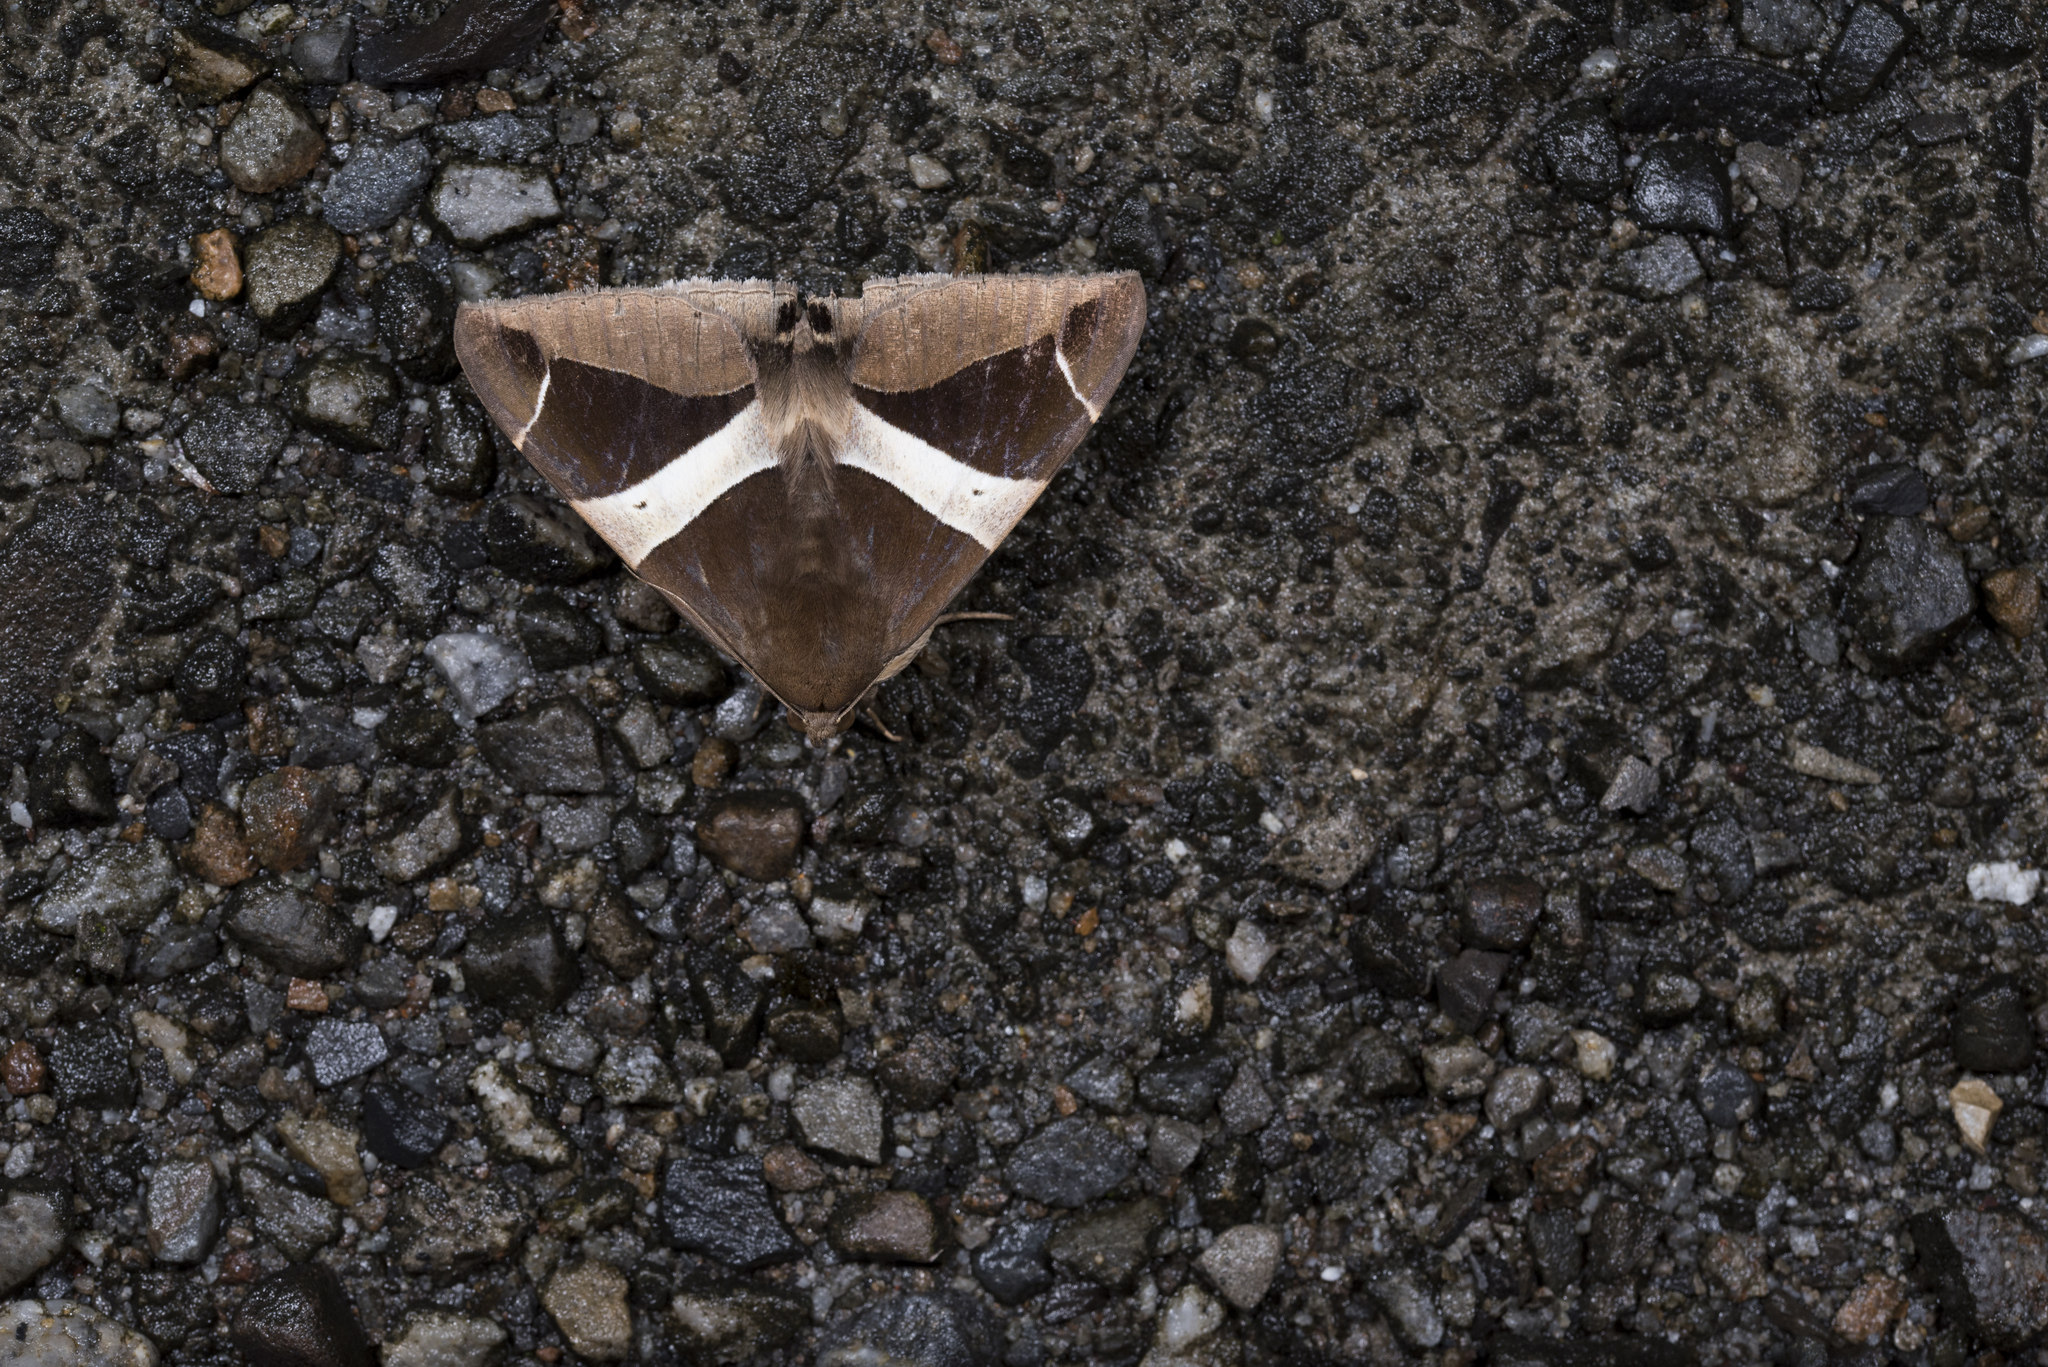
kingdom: Animalia
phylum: Arthropoda
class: Insecta
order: Lepidoptera
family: Erebidae
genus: Dysgonia
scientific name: Dysgonia praetermissa
